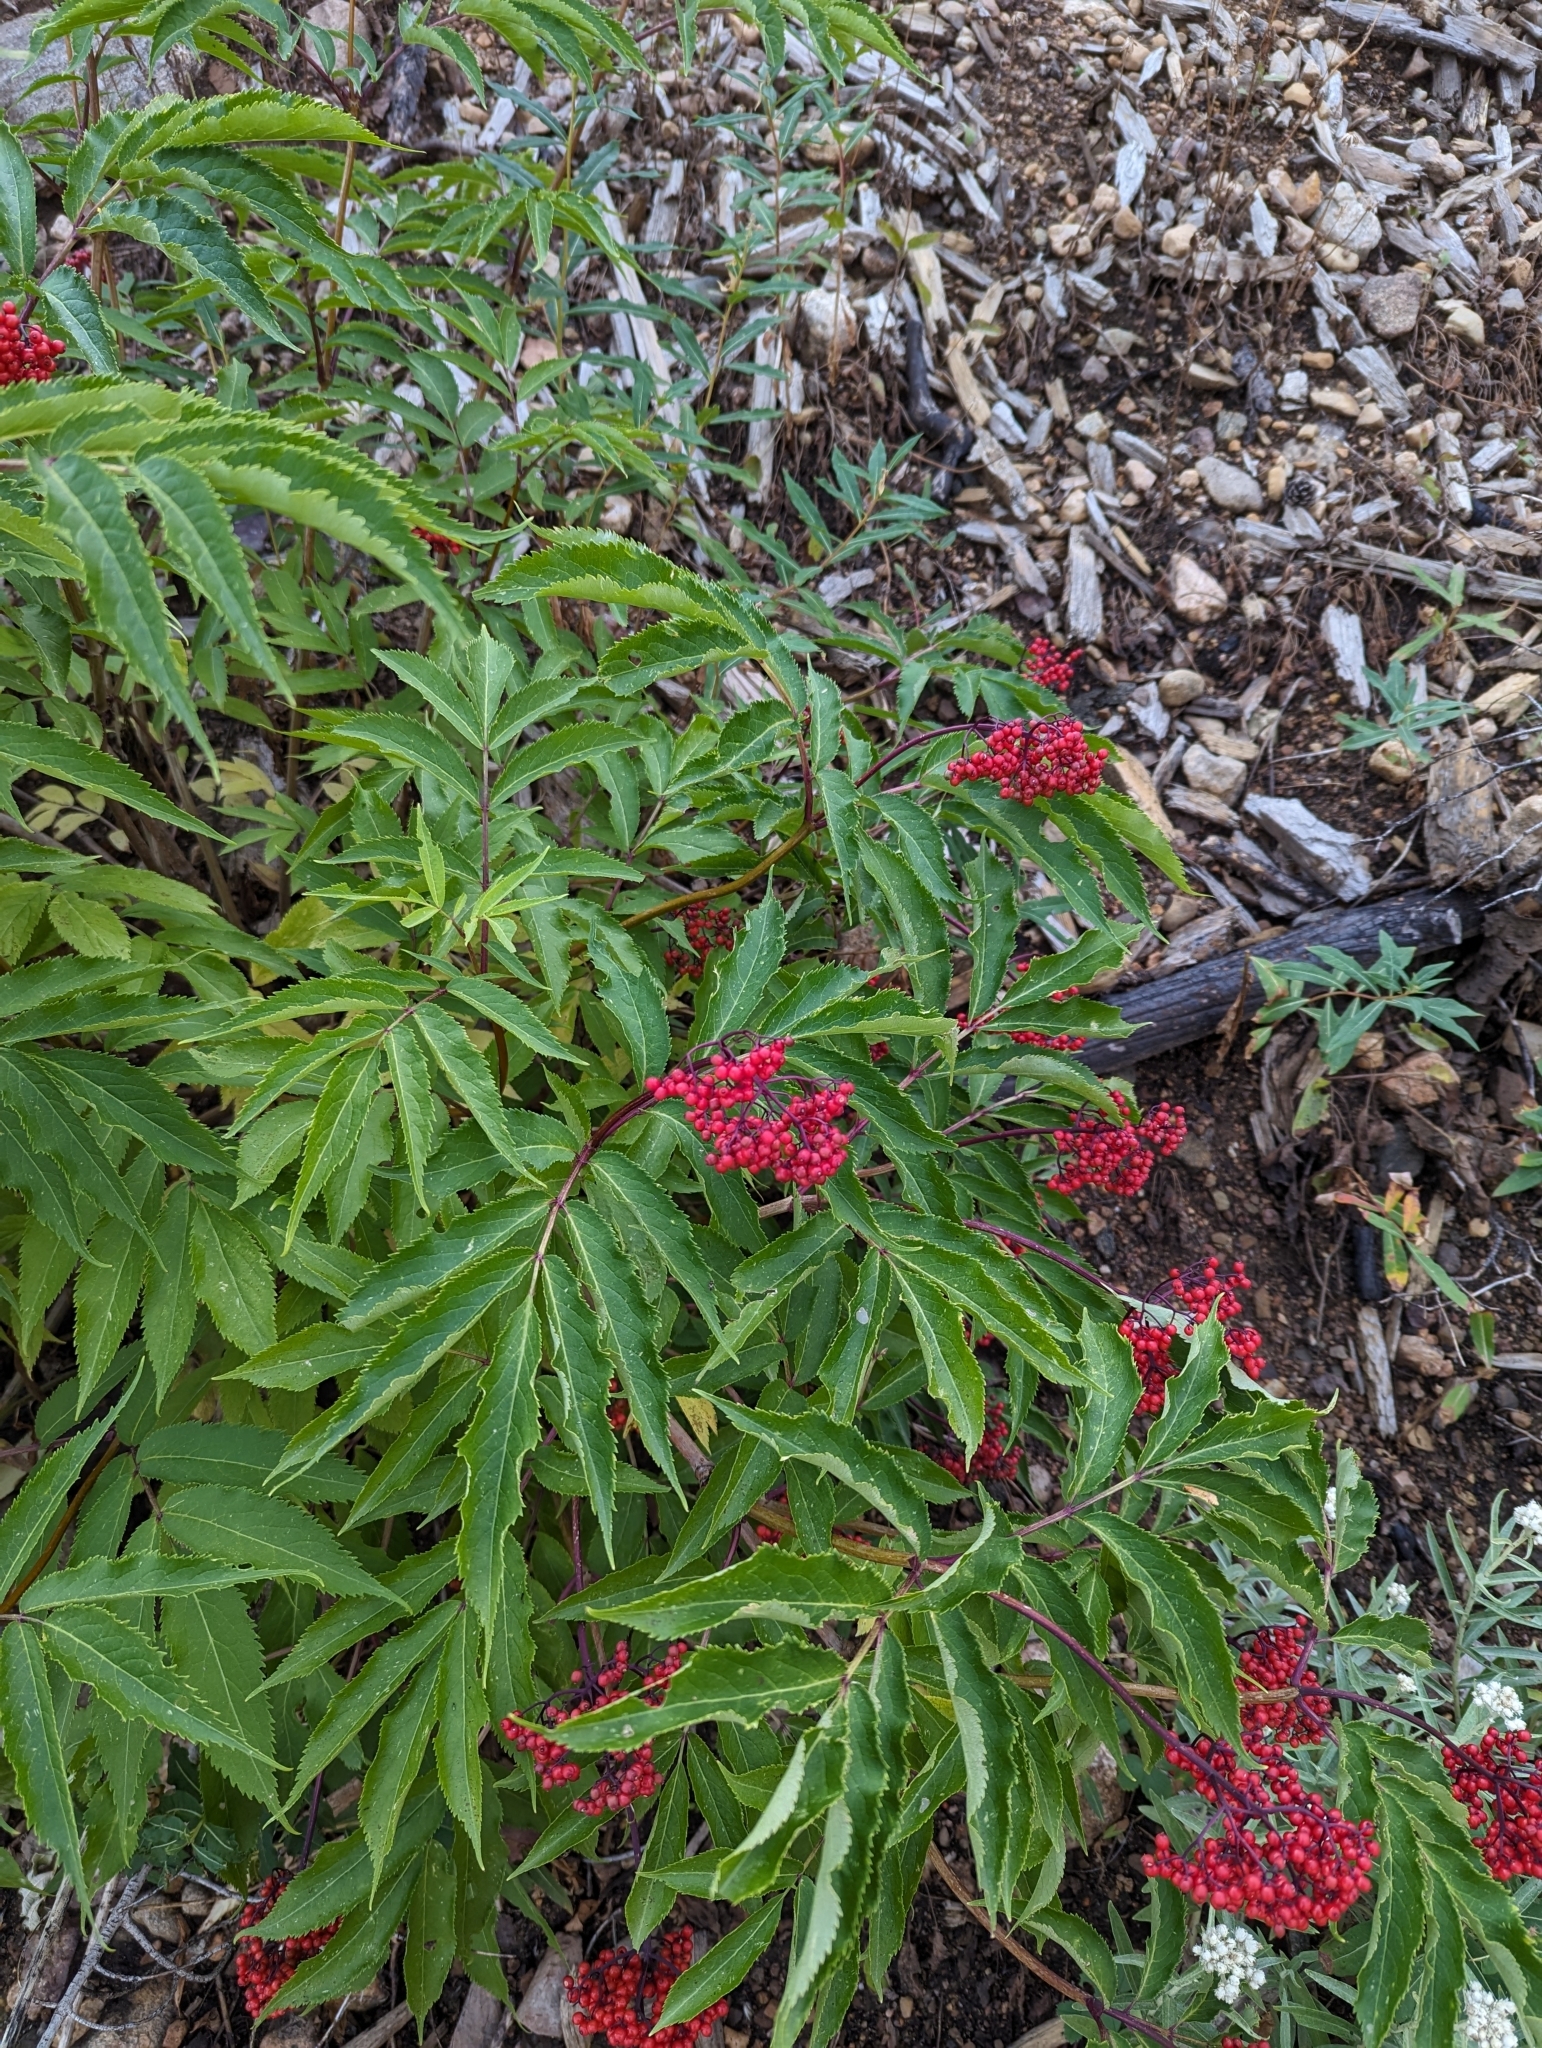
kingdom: Plantae
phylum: Tracheophyta
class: Magnoliopsida
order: Dipsacales
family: Viburnaceae
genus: Sambucus
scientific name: Sambucus racemosa
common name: Red-berried elder
